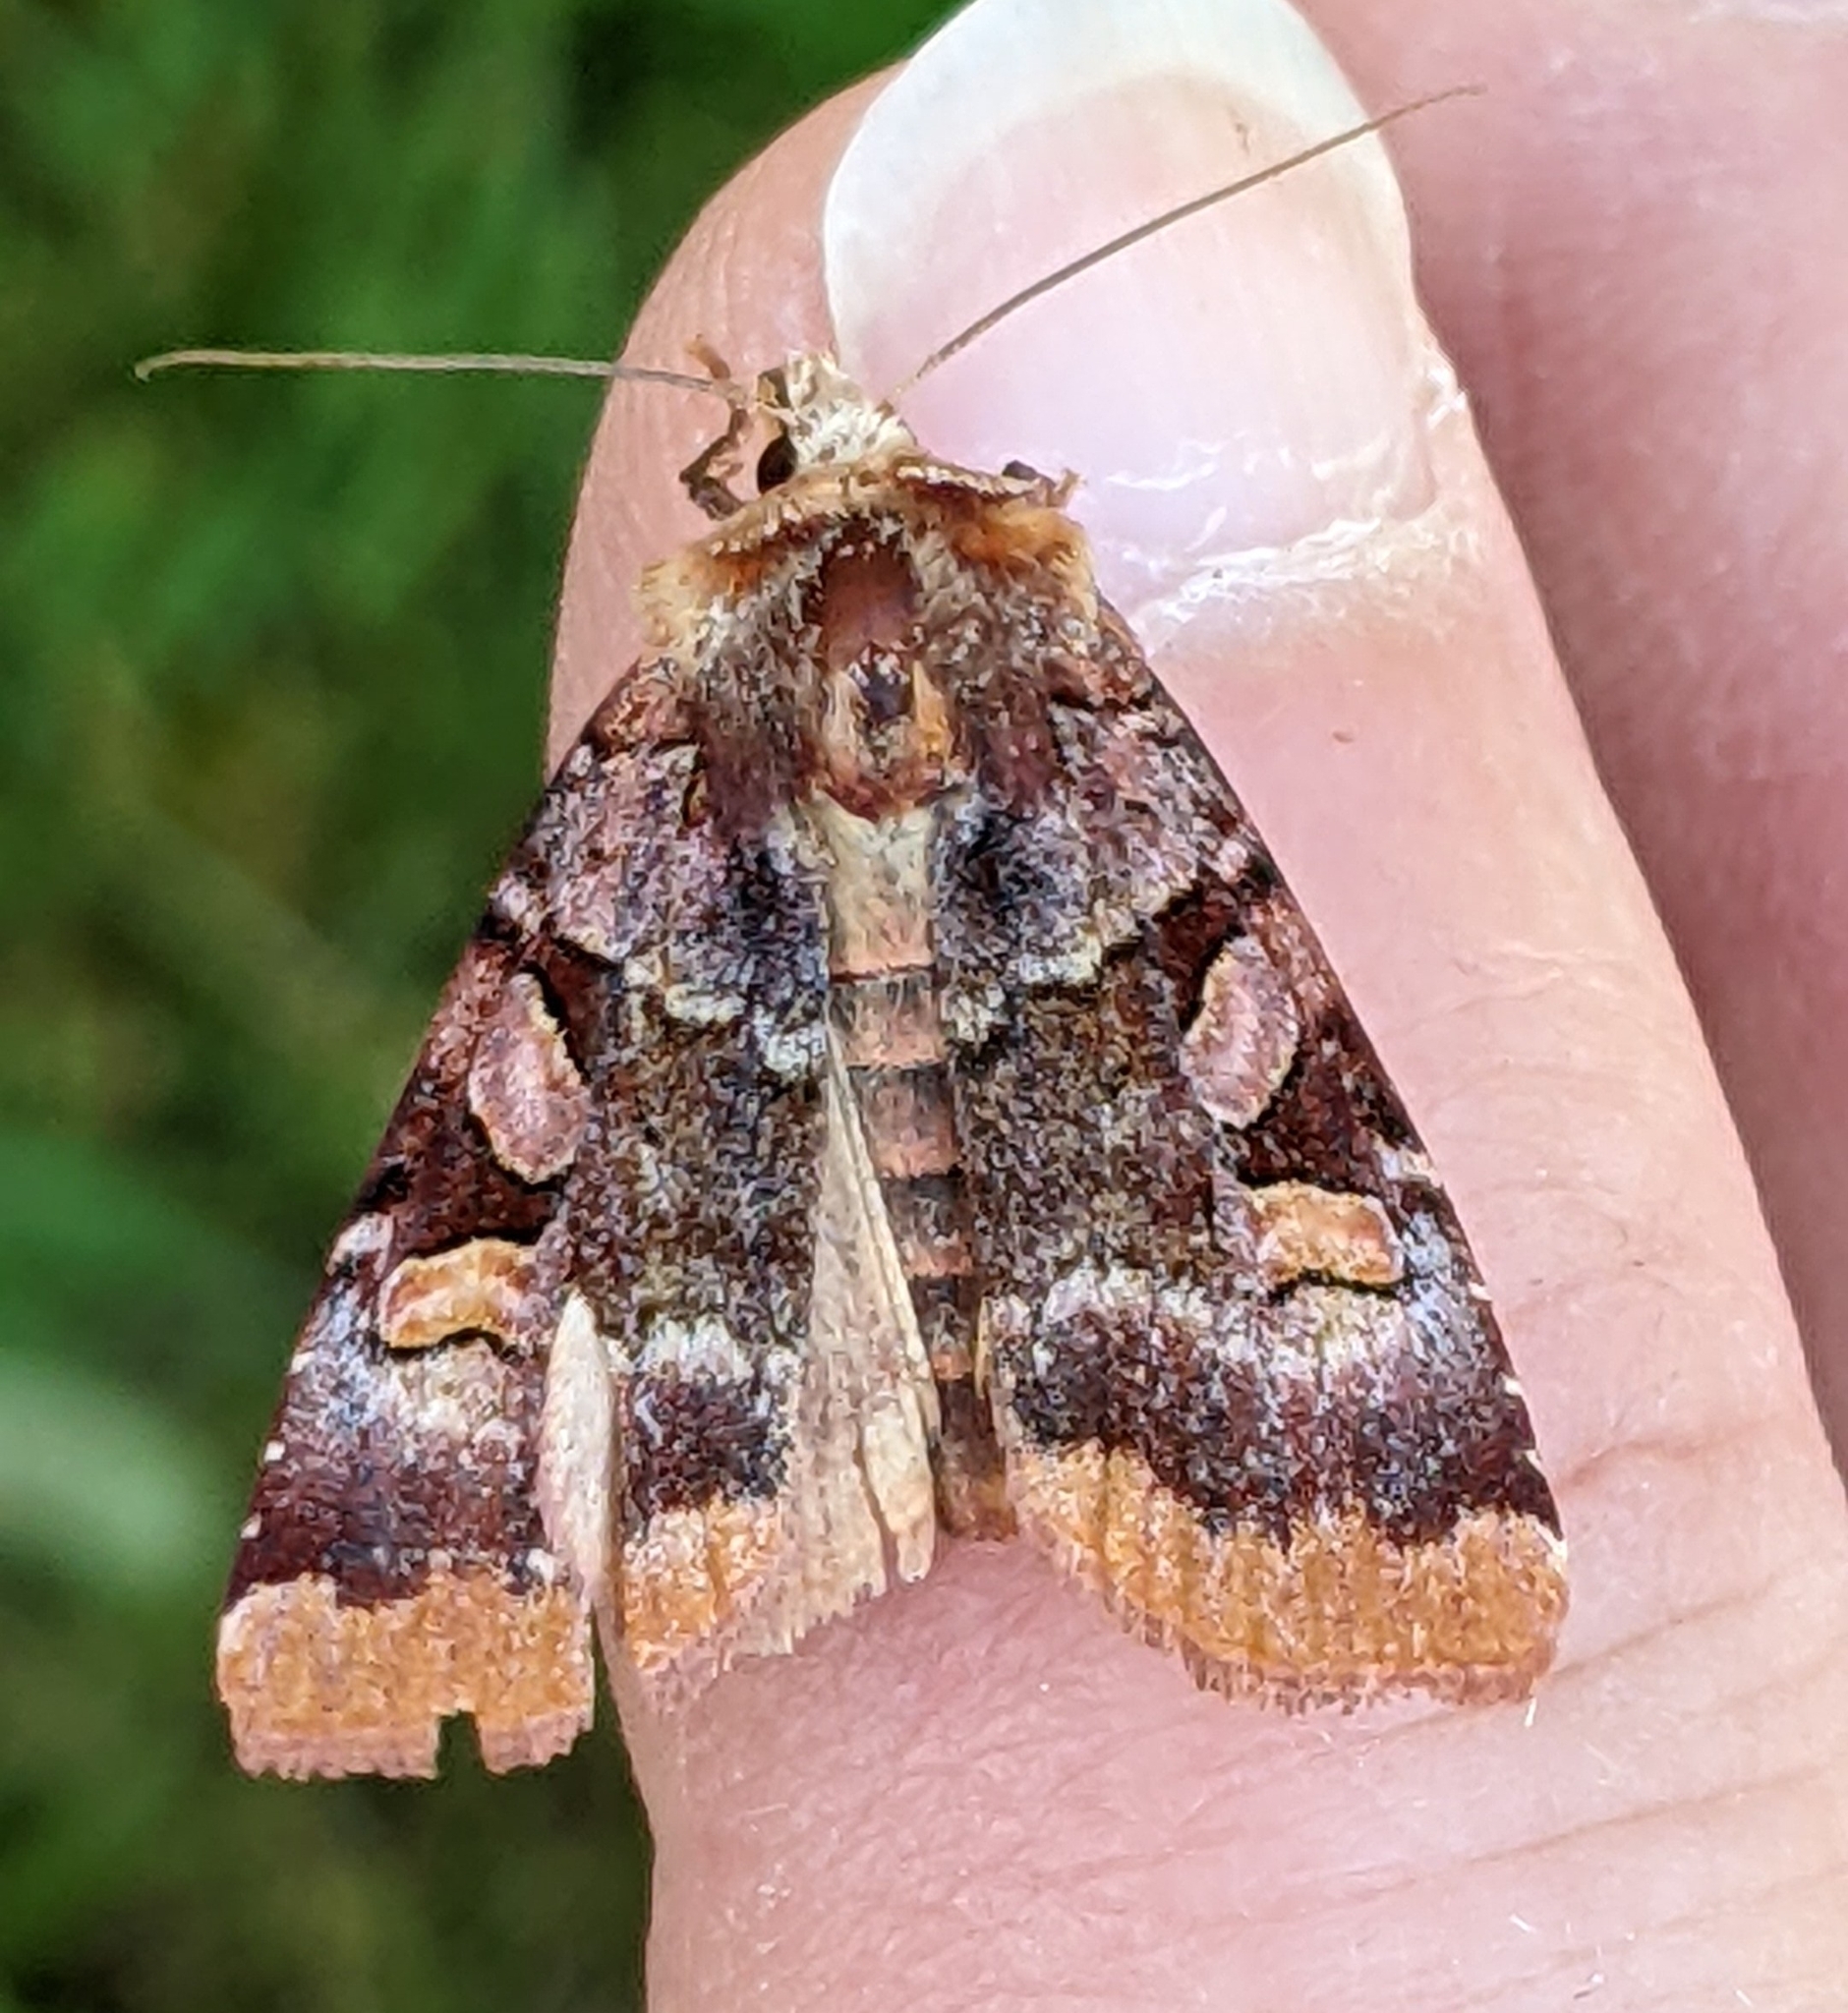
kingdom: Animalia
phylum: Arthropoda
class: Insecta
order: Lepidoptera
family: Noctuidae
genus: Xestia
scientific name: Xestia oblata
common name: Rosy dart
